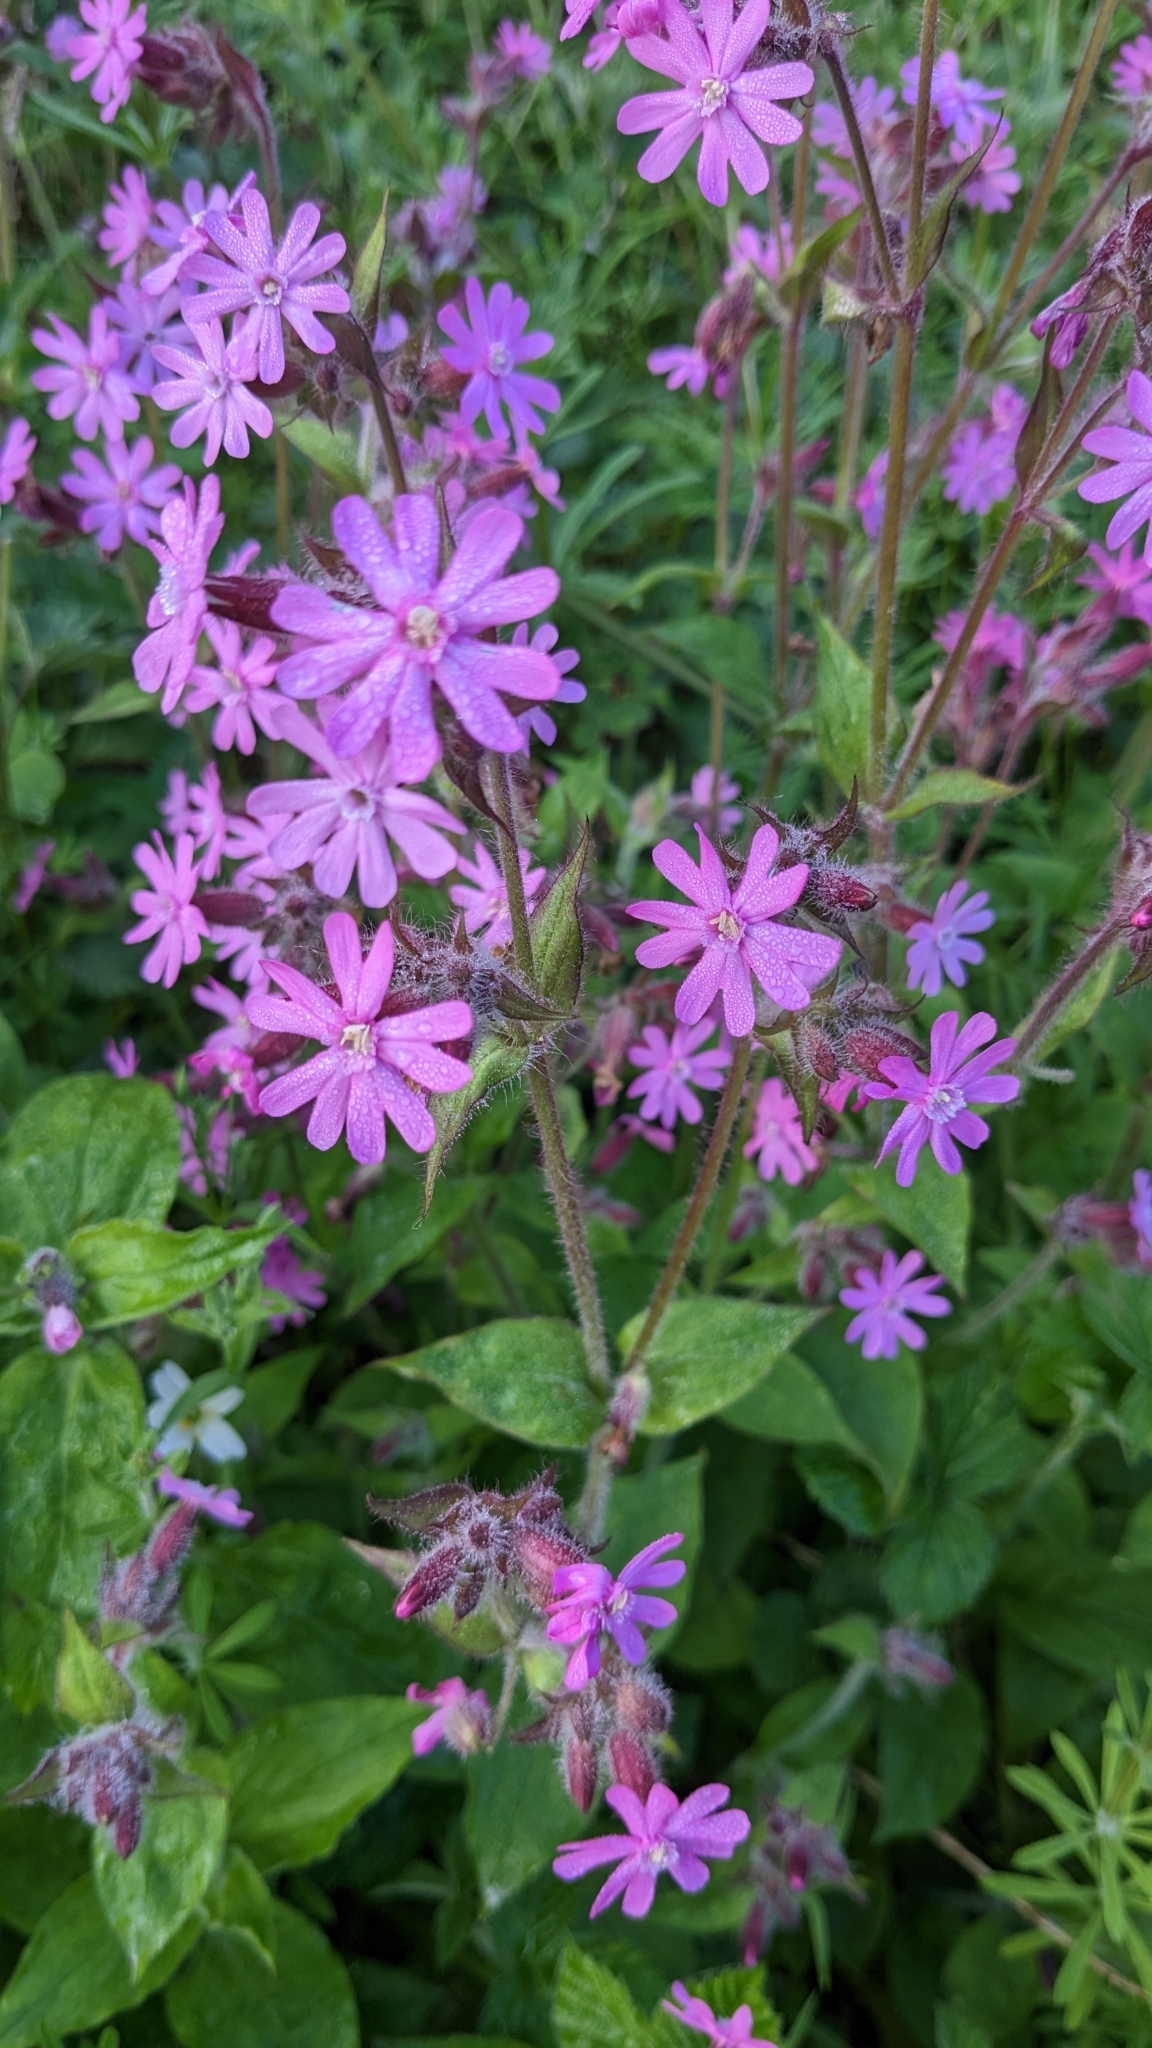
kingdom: Plantae
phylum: Tracheophyta
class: Magnoliopsida
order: Caryophyllales
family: Caryophyllaceae
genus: Silene
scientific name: Silene dioica
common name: Red campion
